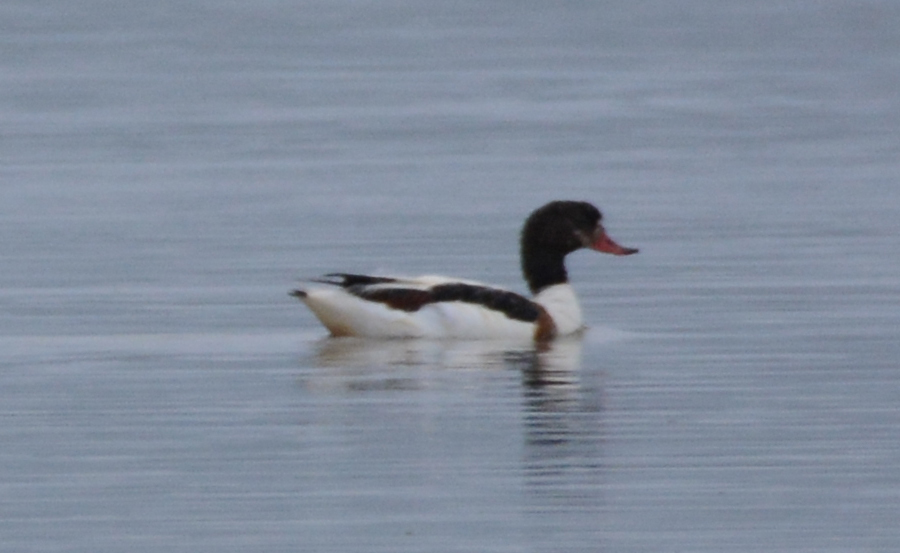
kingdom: Animalia
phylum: Chordata
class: Aves
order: Anseriformes
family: Anatidae
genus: Tadorna
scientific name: Tadorna tadorna
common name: Common shelduck
